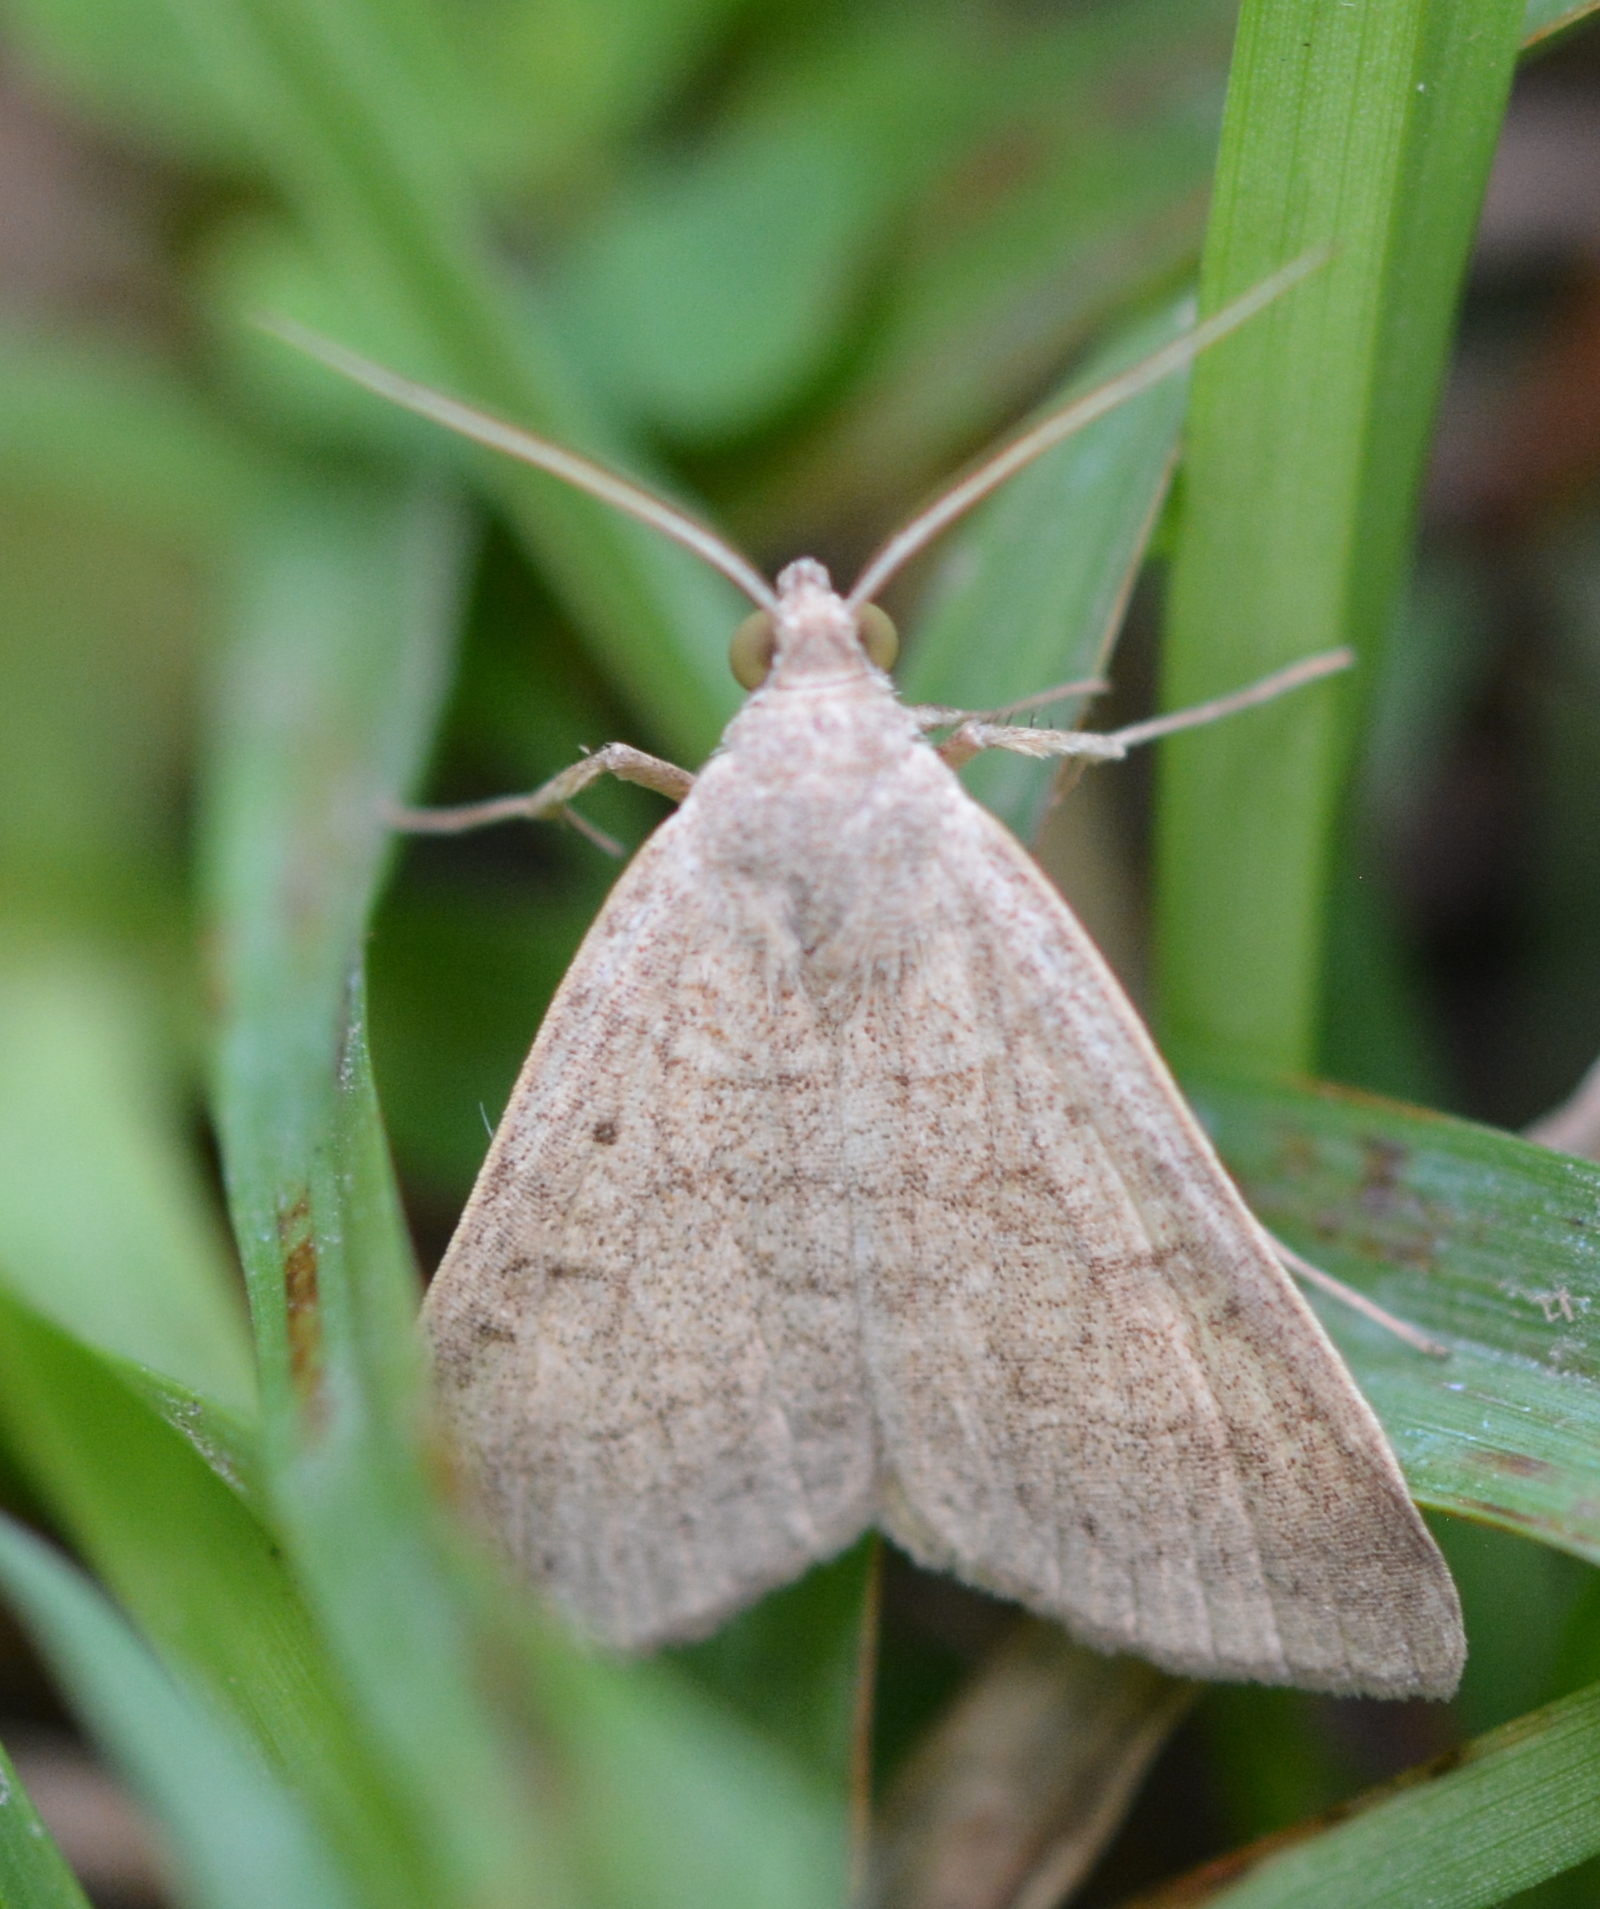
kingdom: Animalia
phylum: Arthropoda
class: Insecta
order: Lepidoptera
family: Erebidae
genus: Caenurgia
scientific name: Caenurgia chloropha
